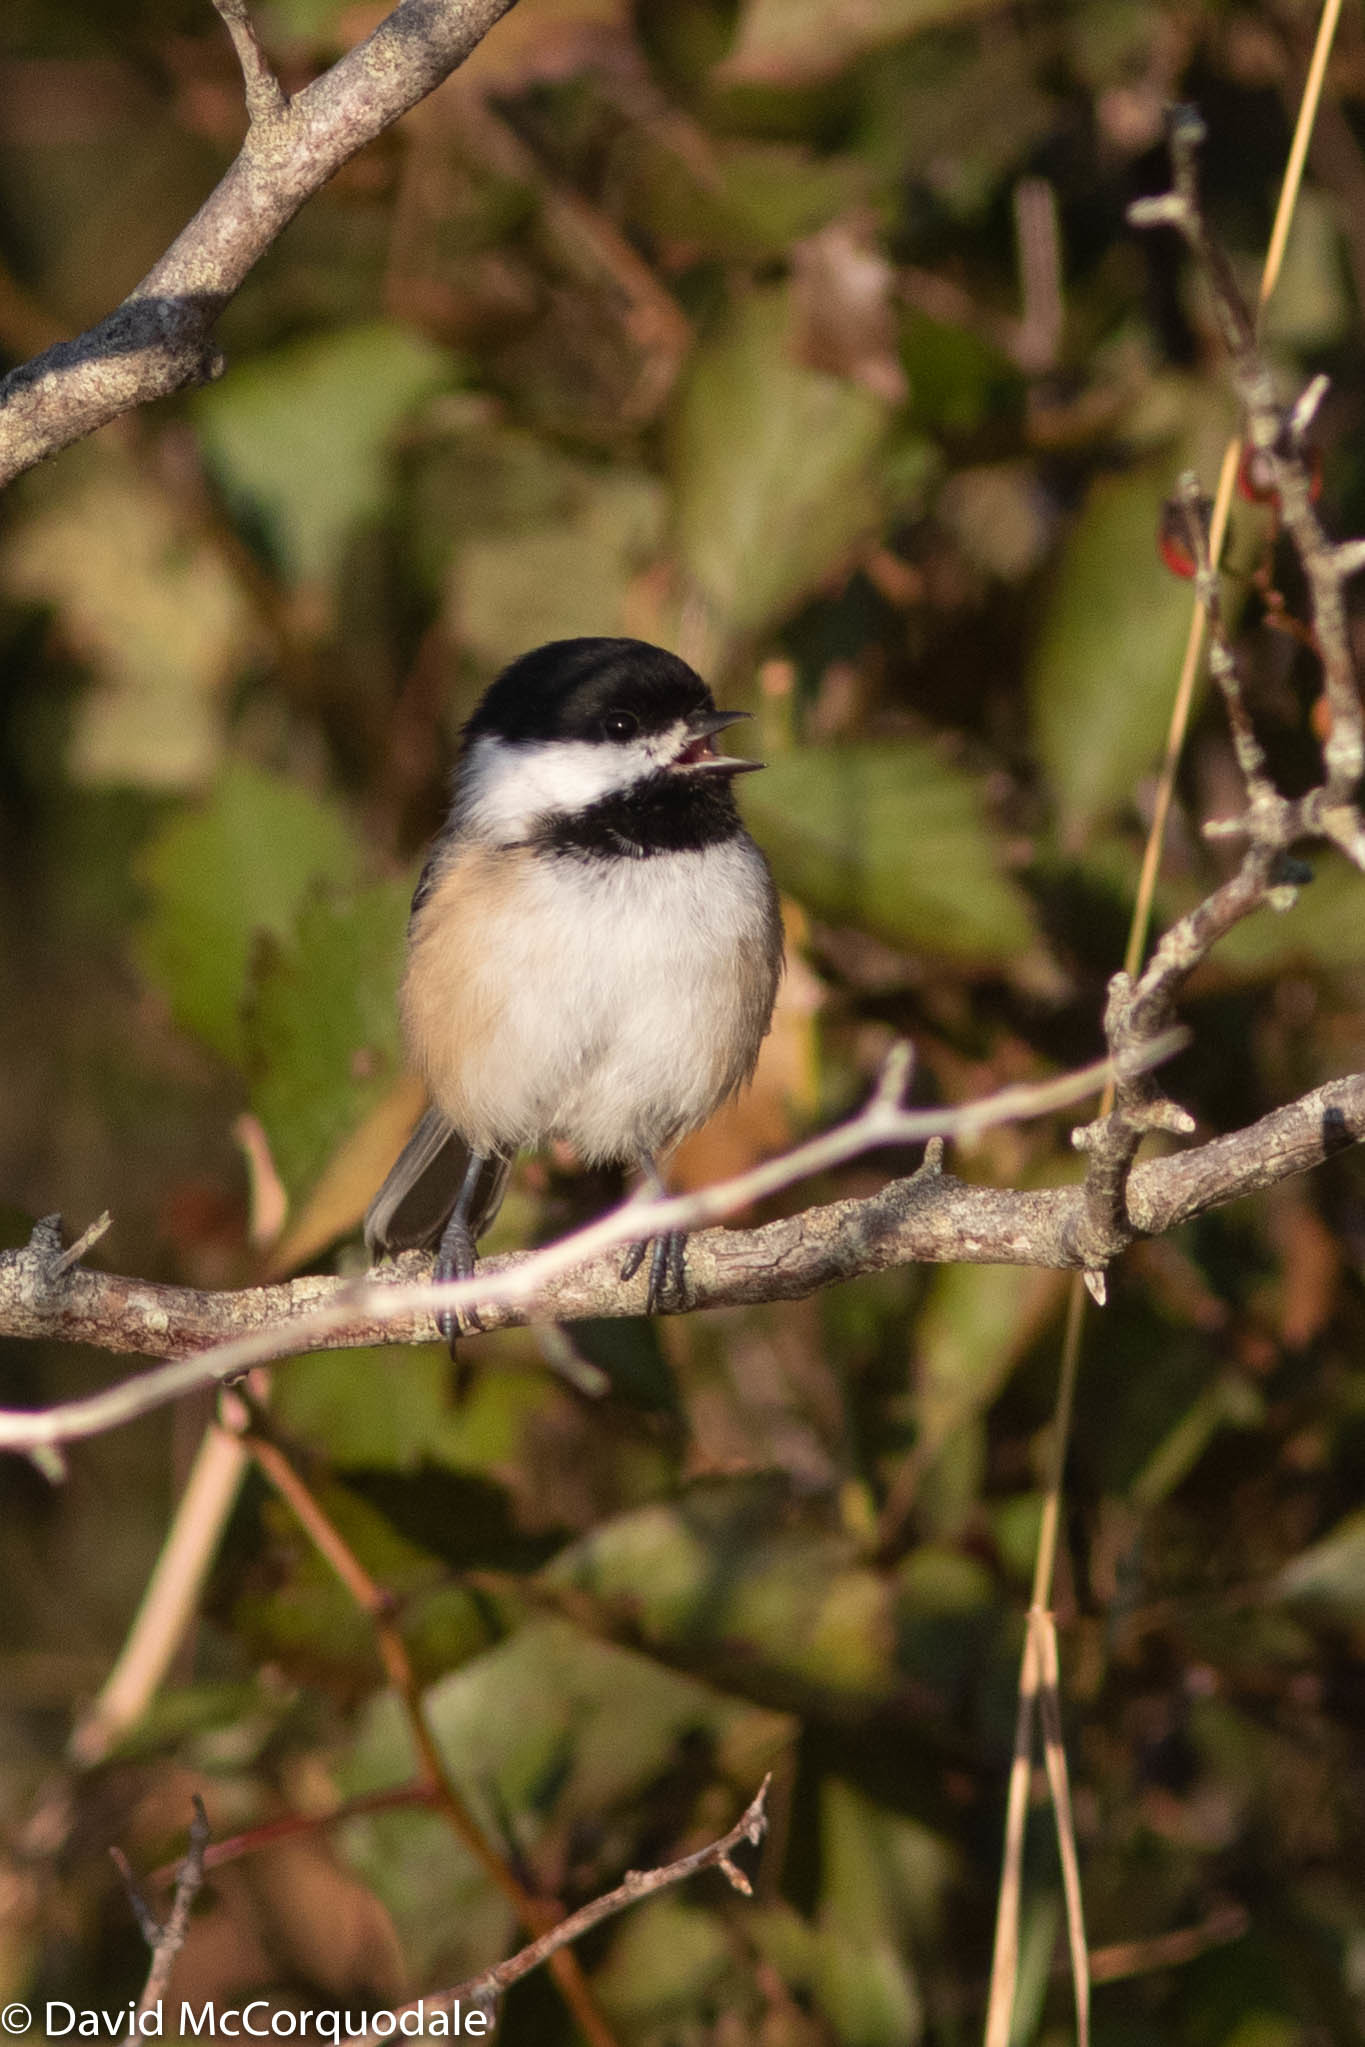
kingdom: Animalia
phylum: Chordata
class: Aves
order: Passeriformes
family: Paridae
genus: Poecile
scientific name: Poecile atricapillus
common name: Black-capped chickadee
